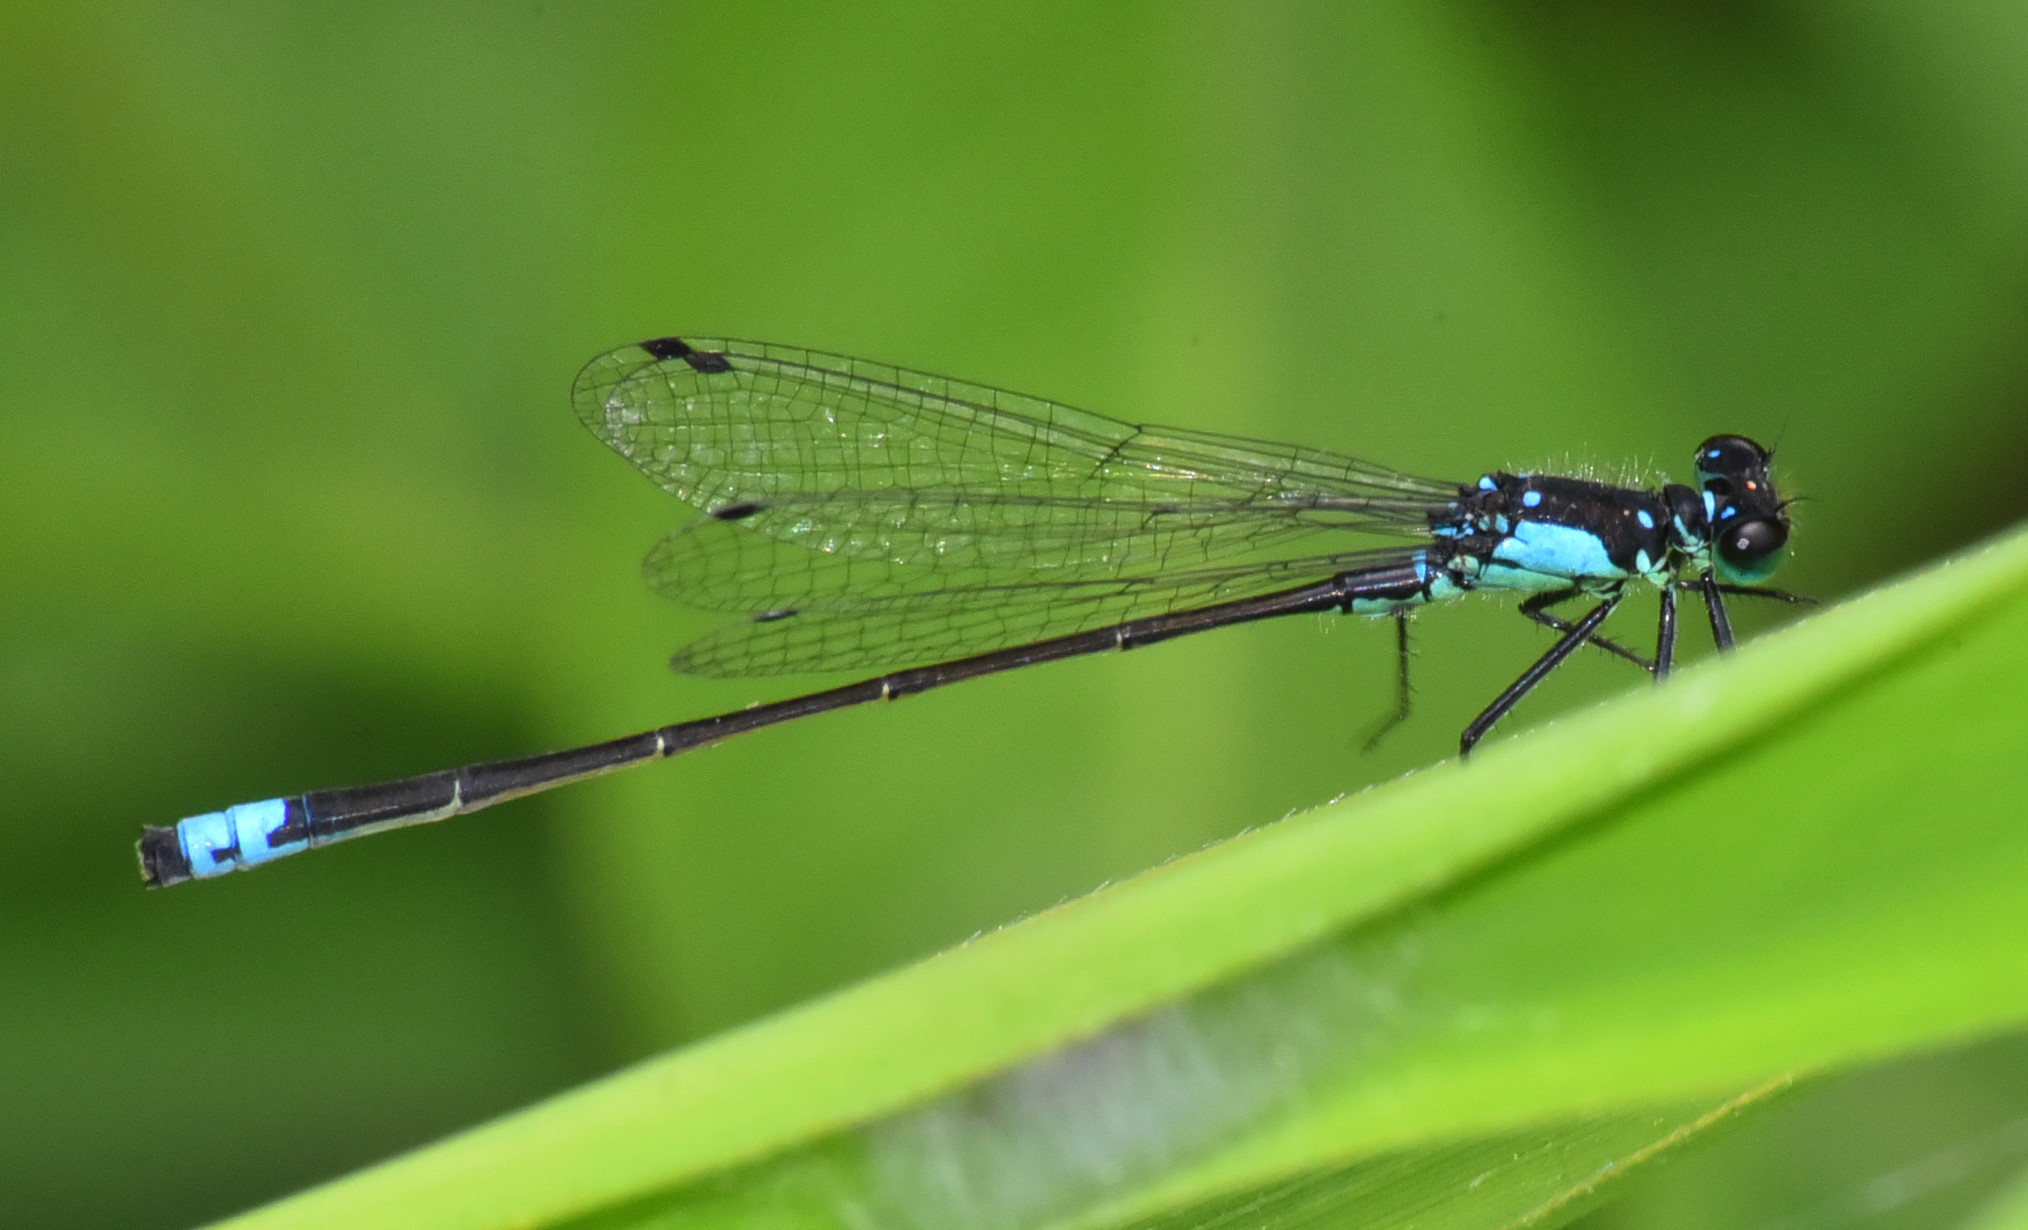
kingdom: Animalia
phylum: Arthropoda
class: Insecta
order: Odonata
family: Coenagrionidae
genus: Ischnura
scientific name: Ischnura cervula
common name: Pacific forktail
